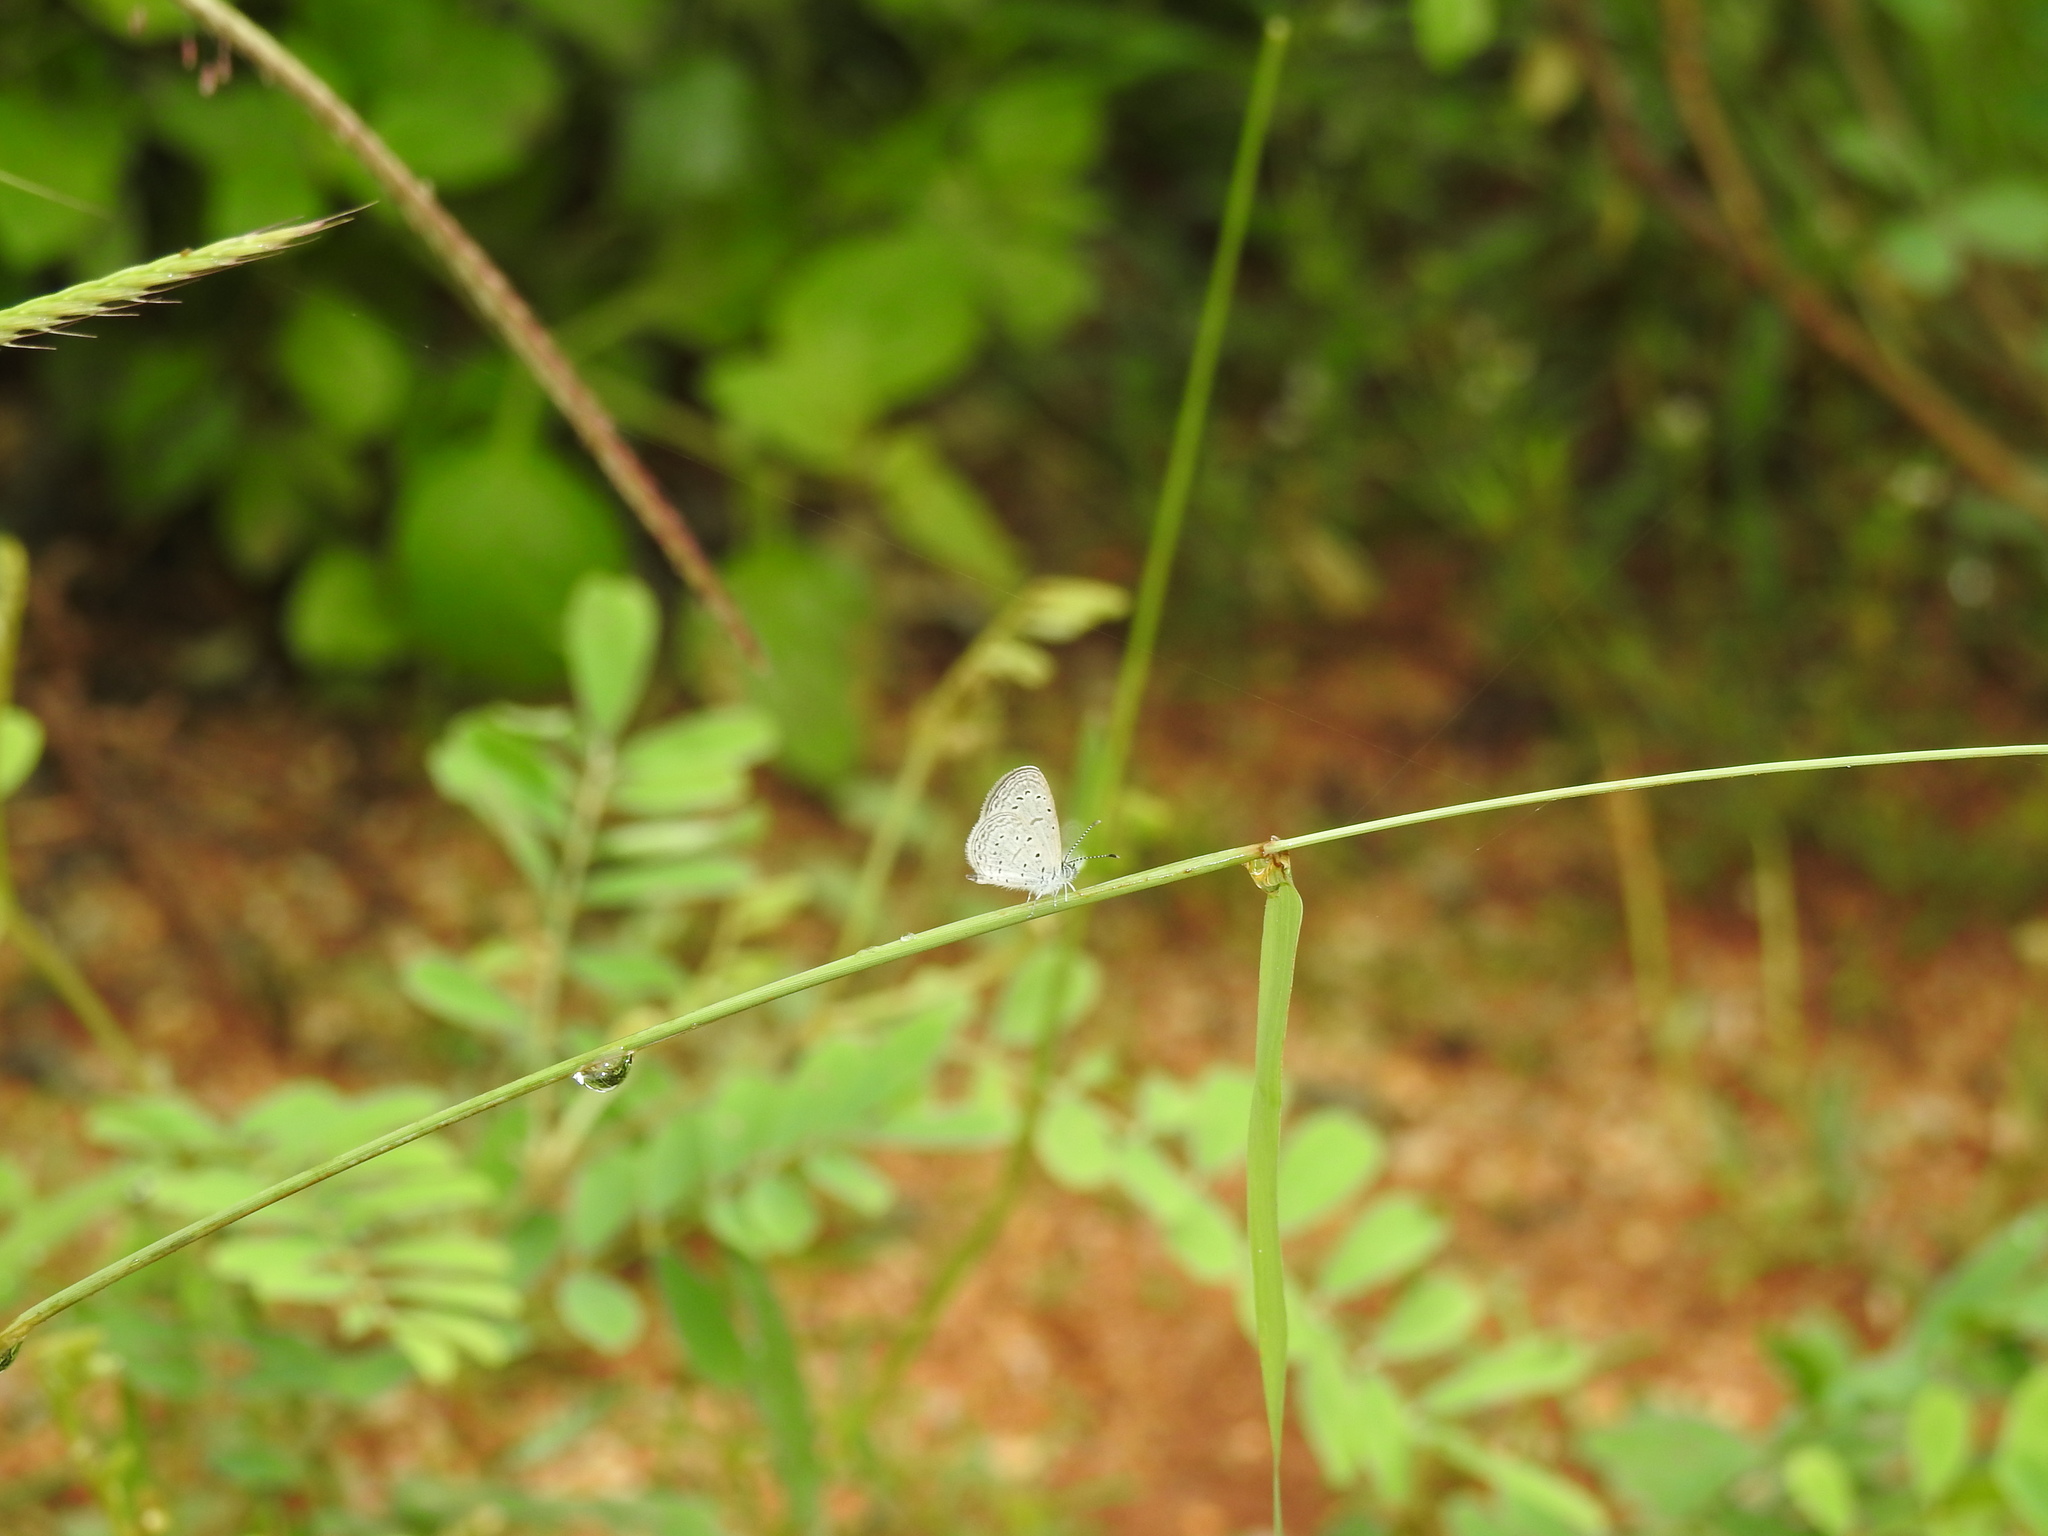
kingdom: Animalia
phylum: Arthropoda
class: Insecta
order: Lepidoptera
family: Lycaenidae
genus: Zizula
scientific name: Zizula hylax
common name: Gaika blue
